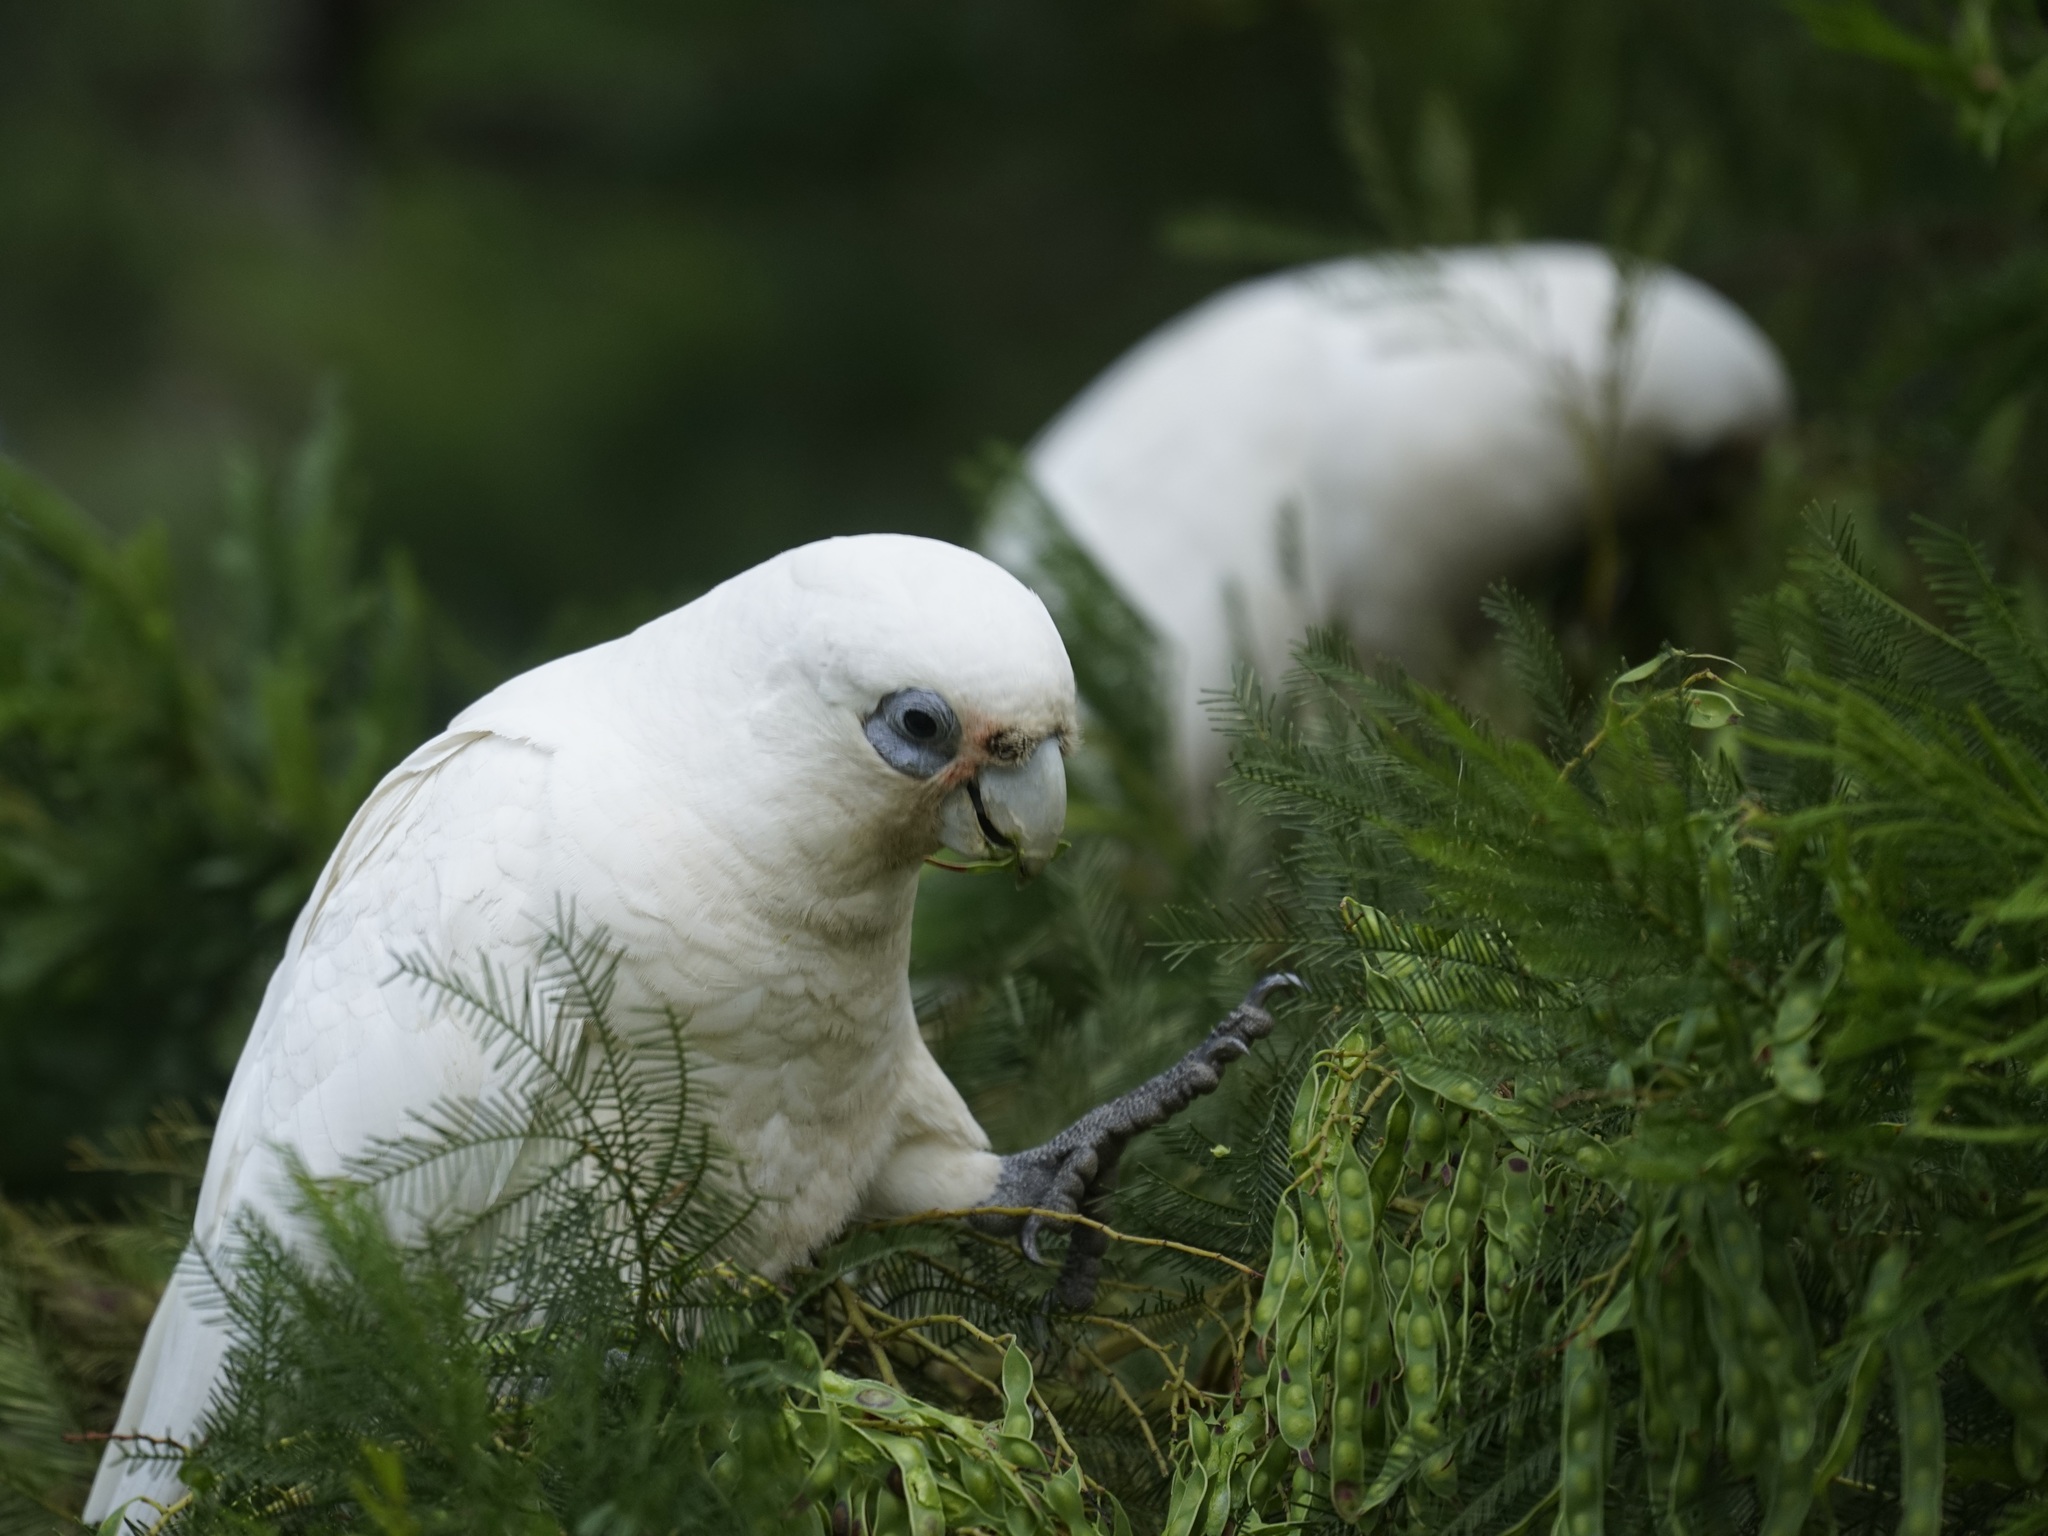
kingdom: Animalia
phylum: Chordata
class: Aves
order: Psittaciformes
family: Psittacidae
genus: Cacatua
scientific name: Cacatua sanguinea
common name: Little corella
